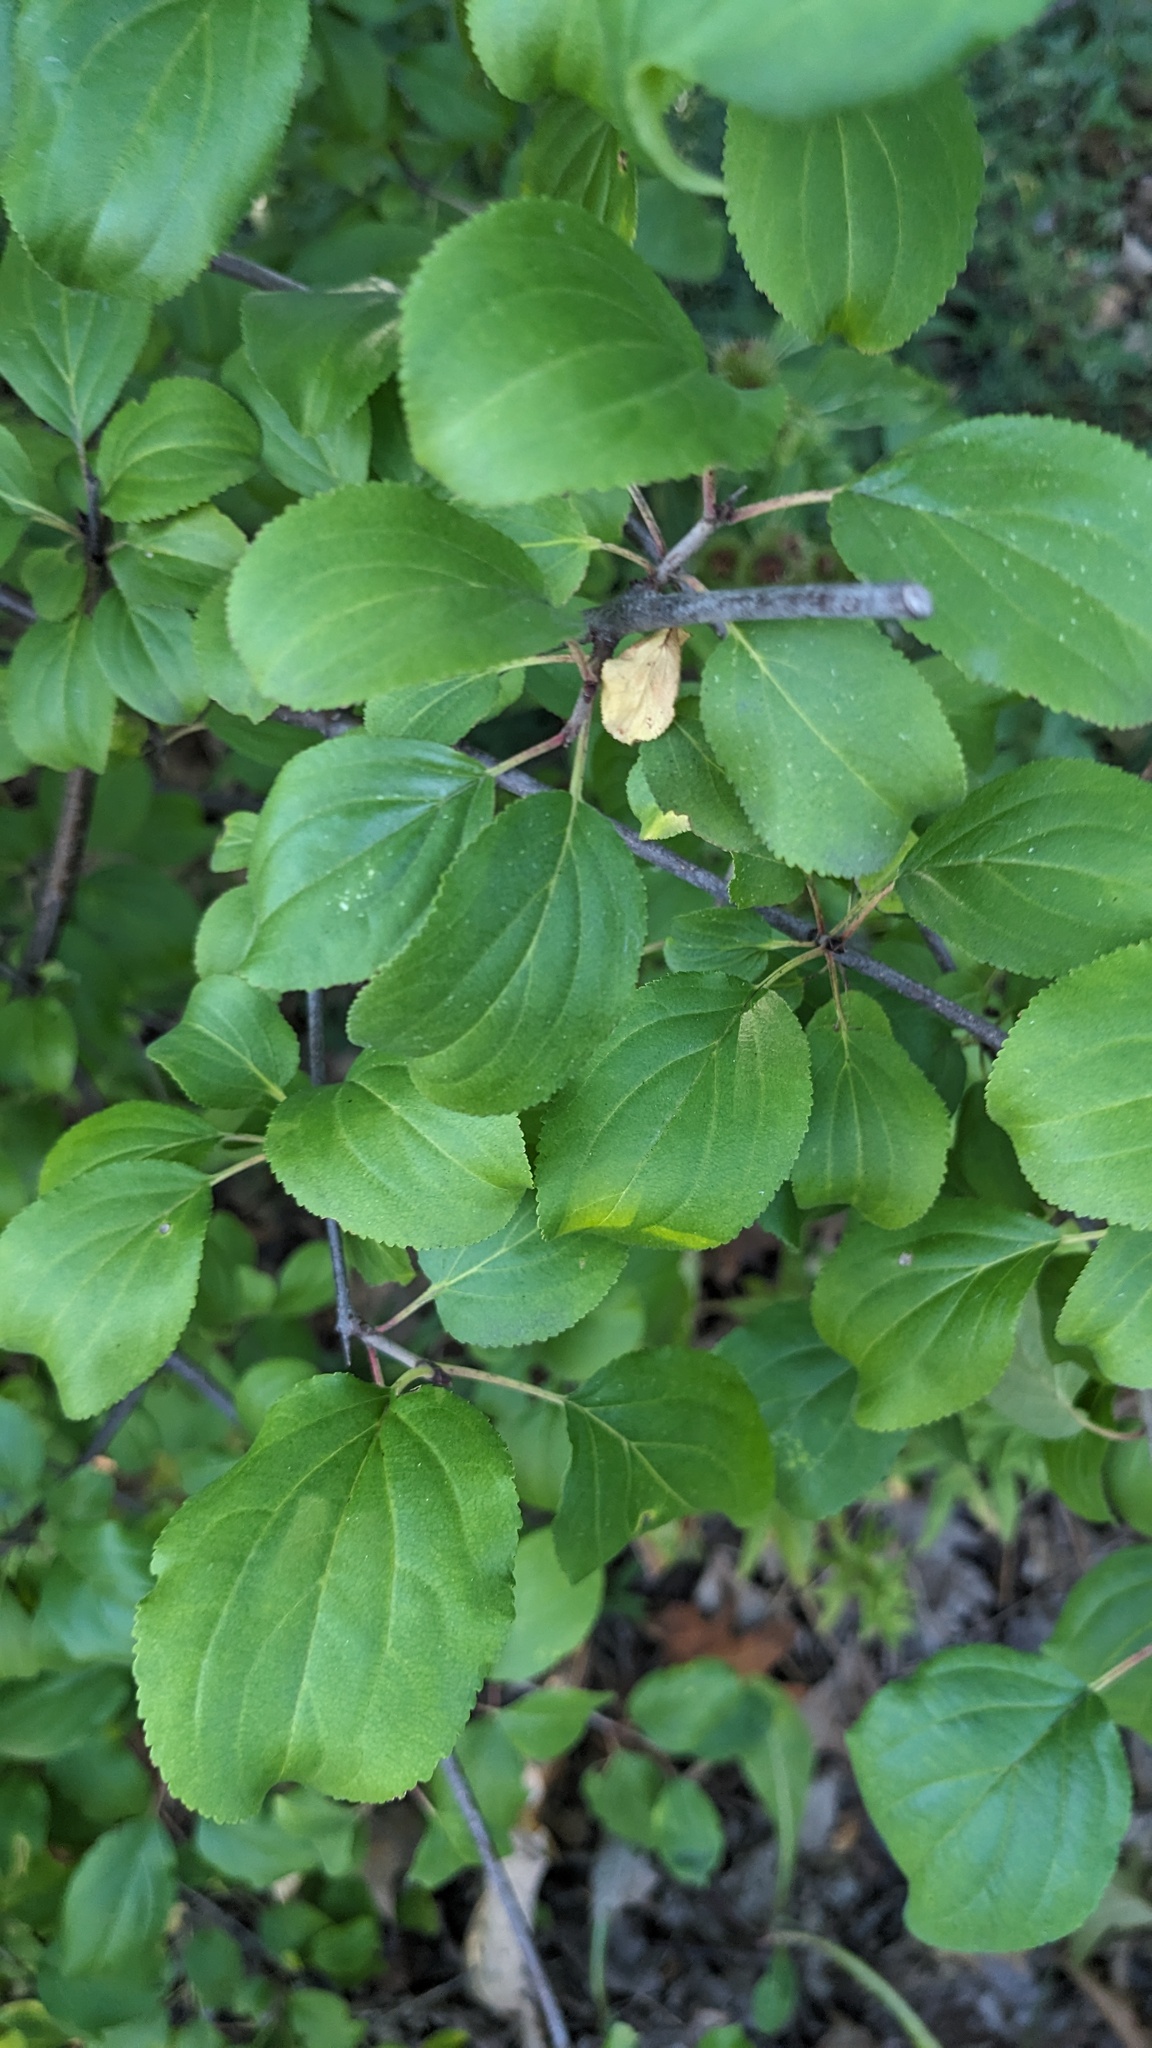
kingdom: Plantae
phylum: Tracheophyta
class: Magnoliopsida
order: Rosales
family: Rhamnaceae
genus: Rhamnus
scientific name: Rhamnus cathartica
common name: Common buckthorn
